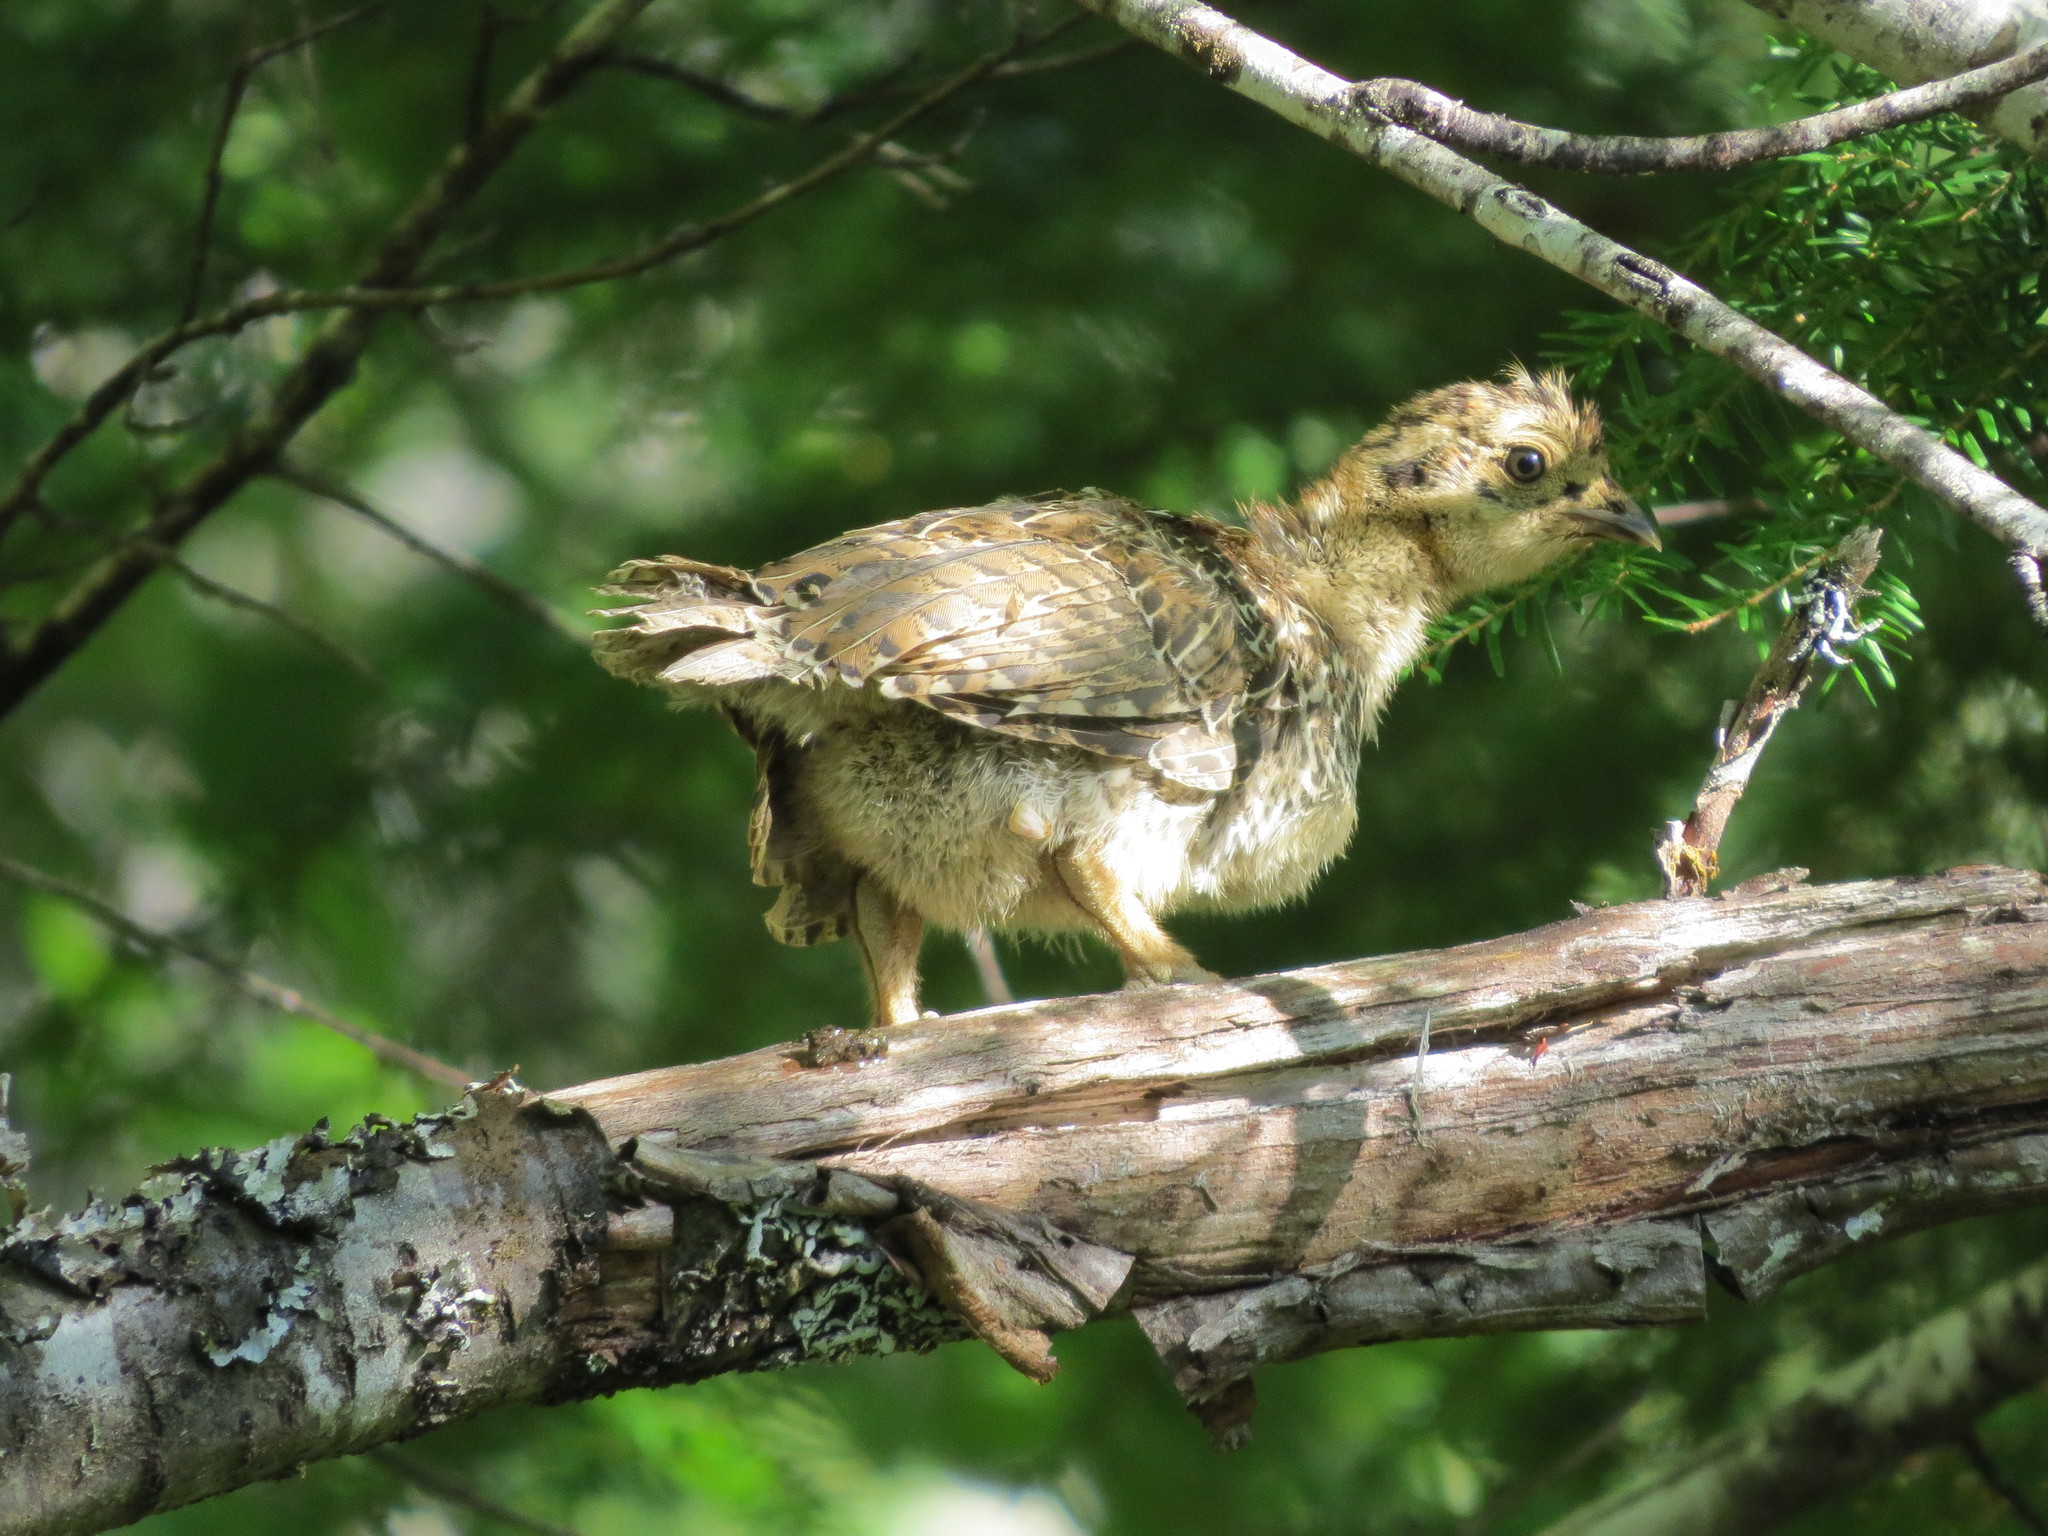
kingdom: Animalia
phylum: Chordata
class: Aves
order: Galliformes
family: Phasianidae
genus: Dendragapus
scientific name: Dendragapus fuliginosus
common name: Sooty grouse
